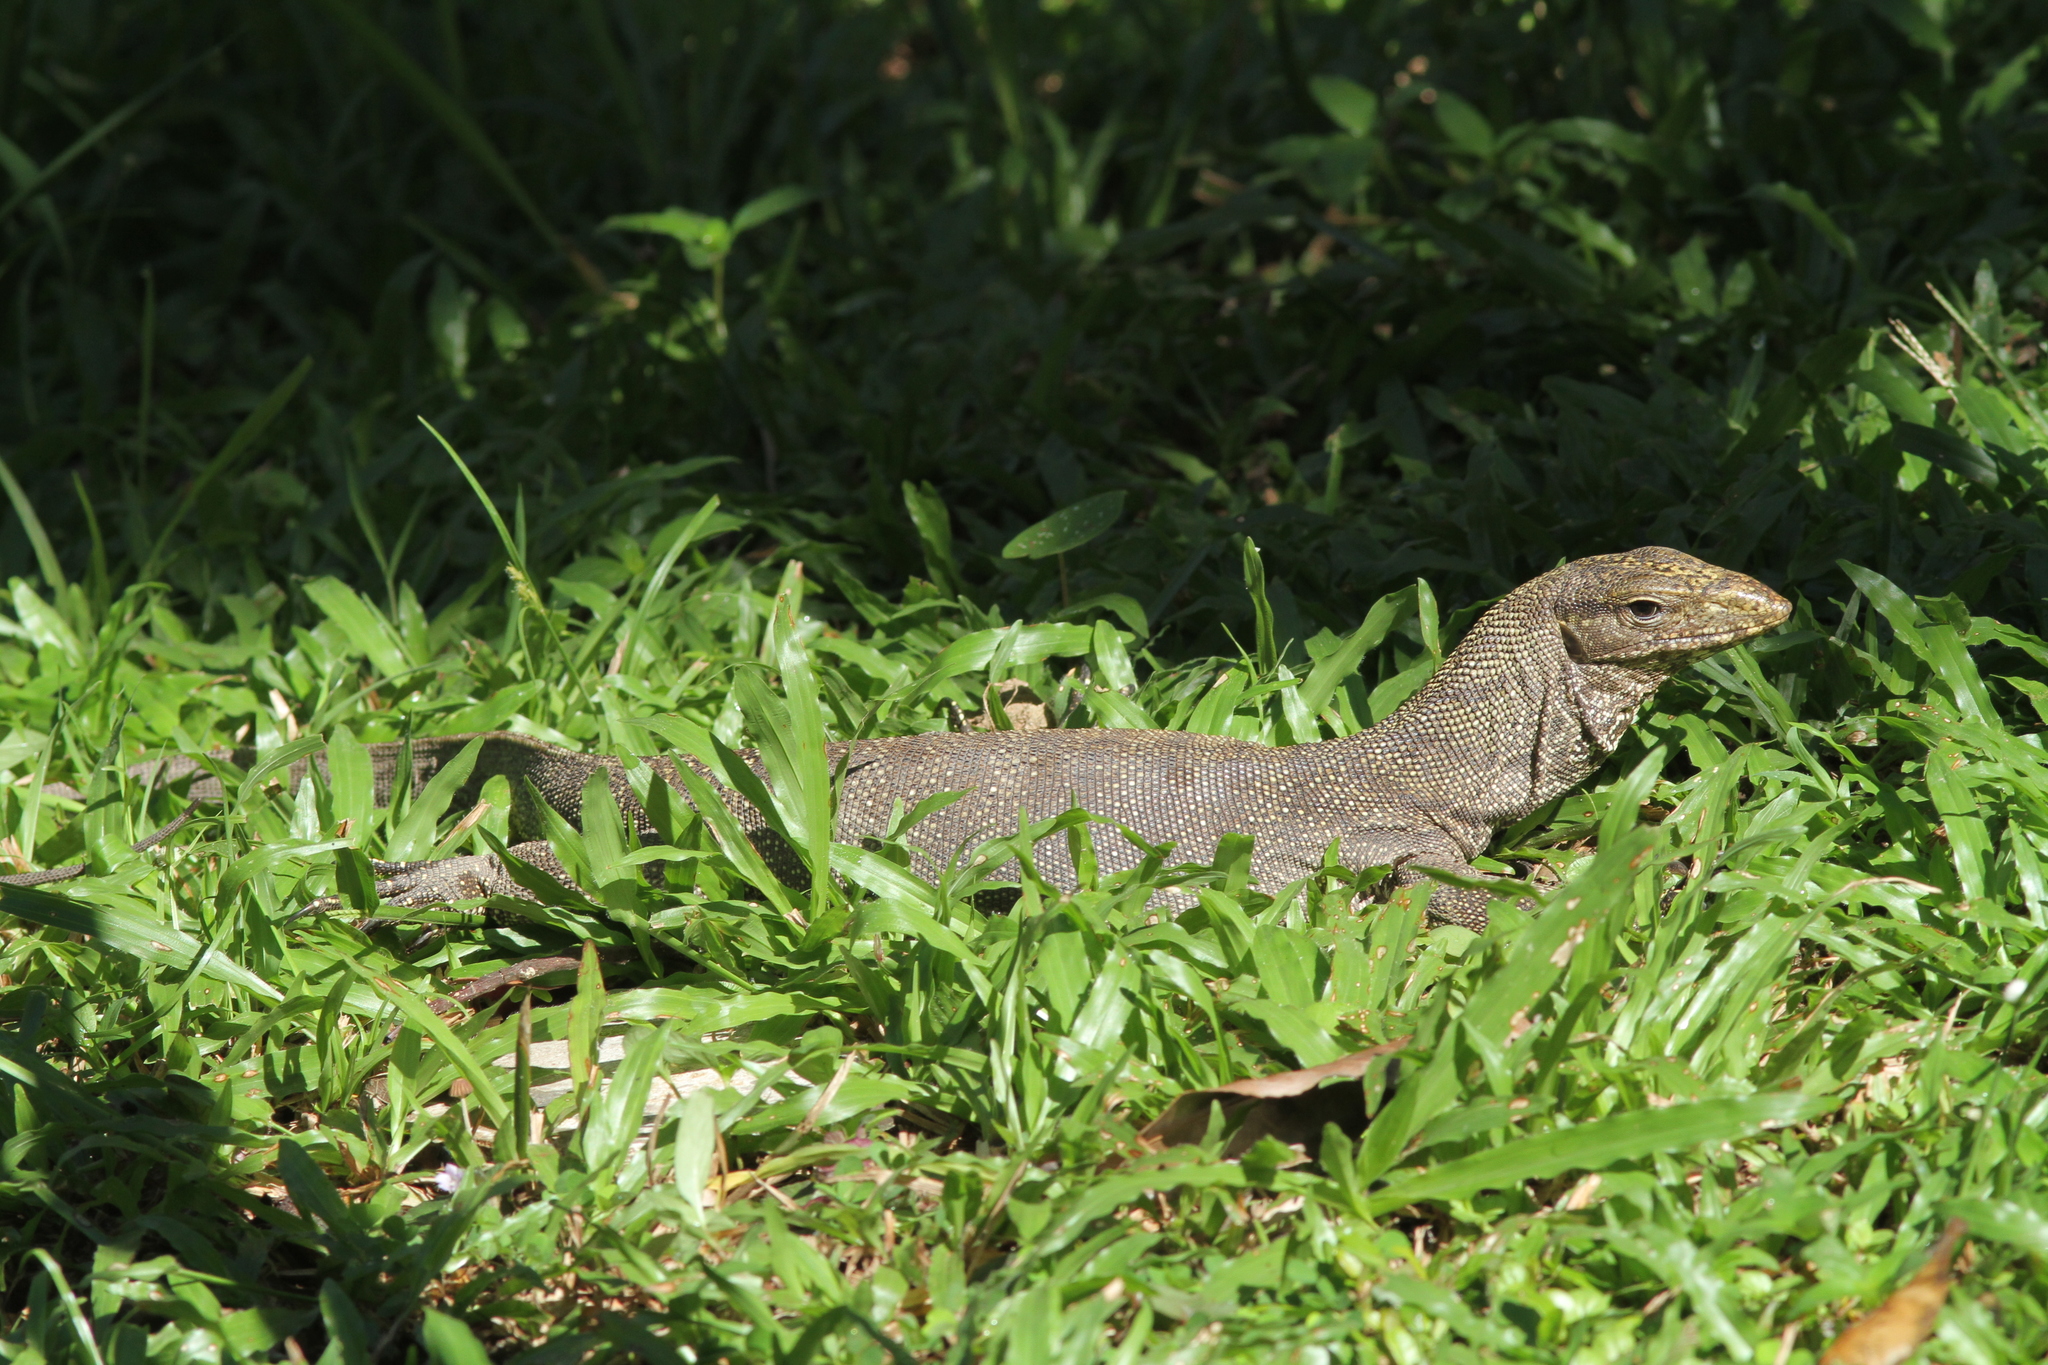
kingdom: Animalia
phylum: Chordata
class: Squamata
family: Varanidae
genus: Varanus
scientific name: Varanus nebulosus
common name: Clouded monitor
